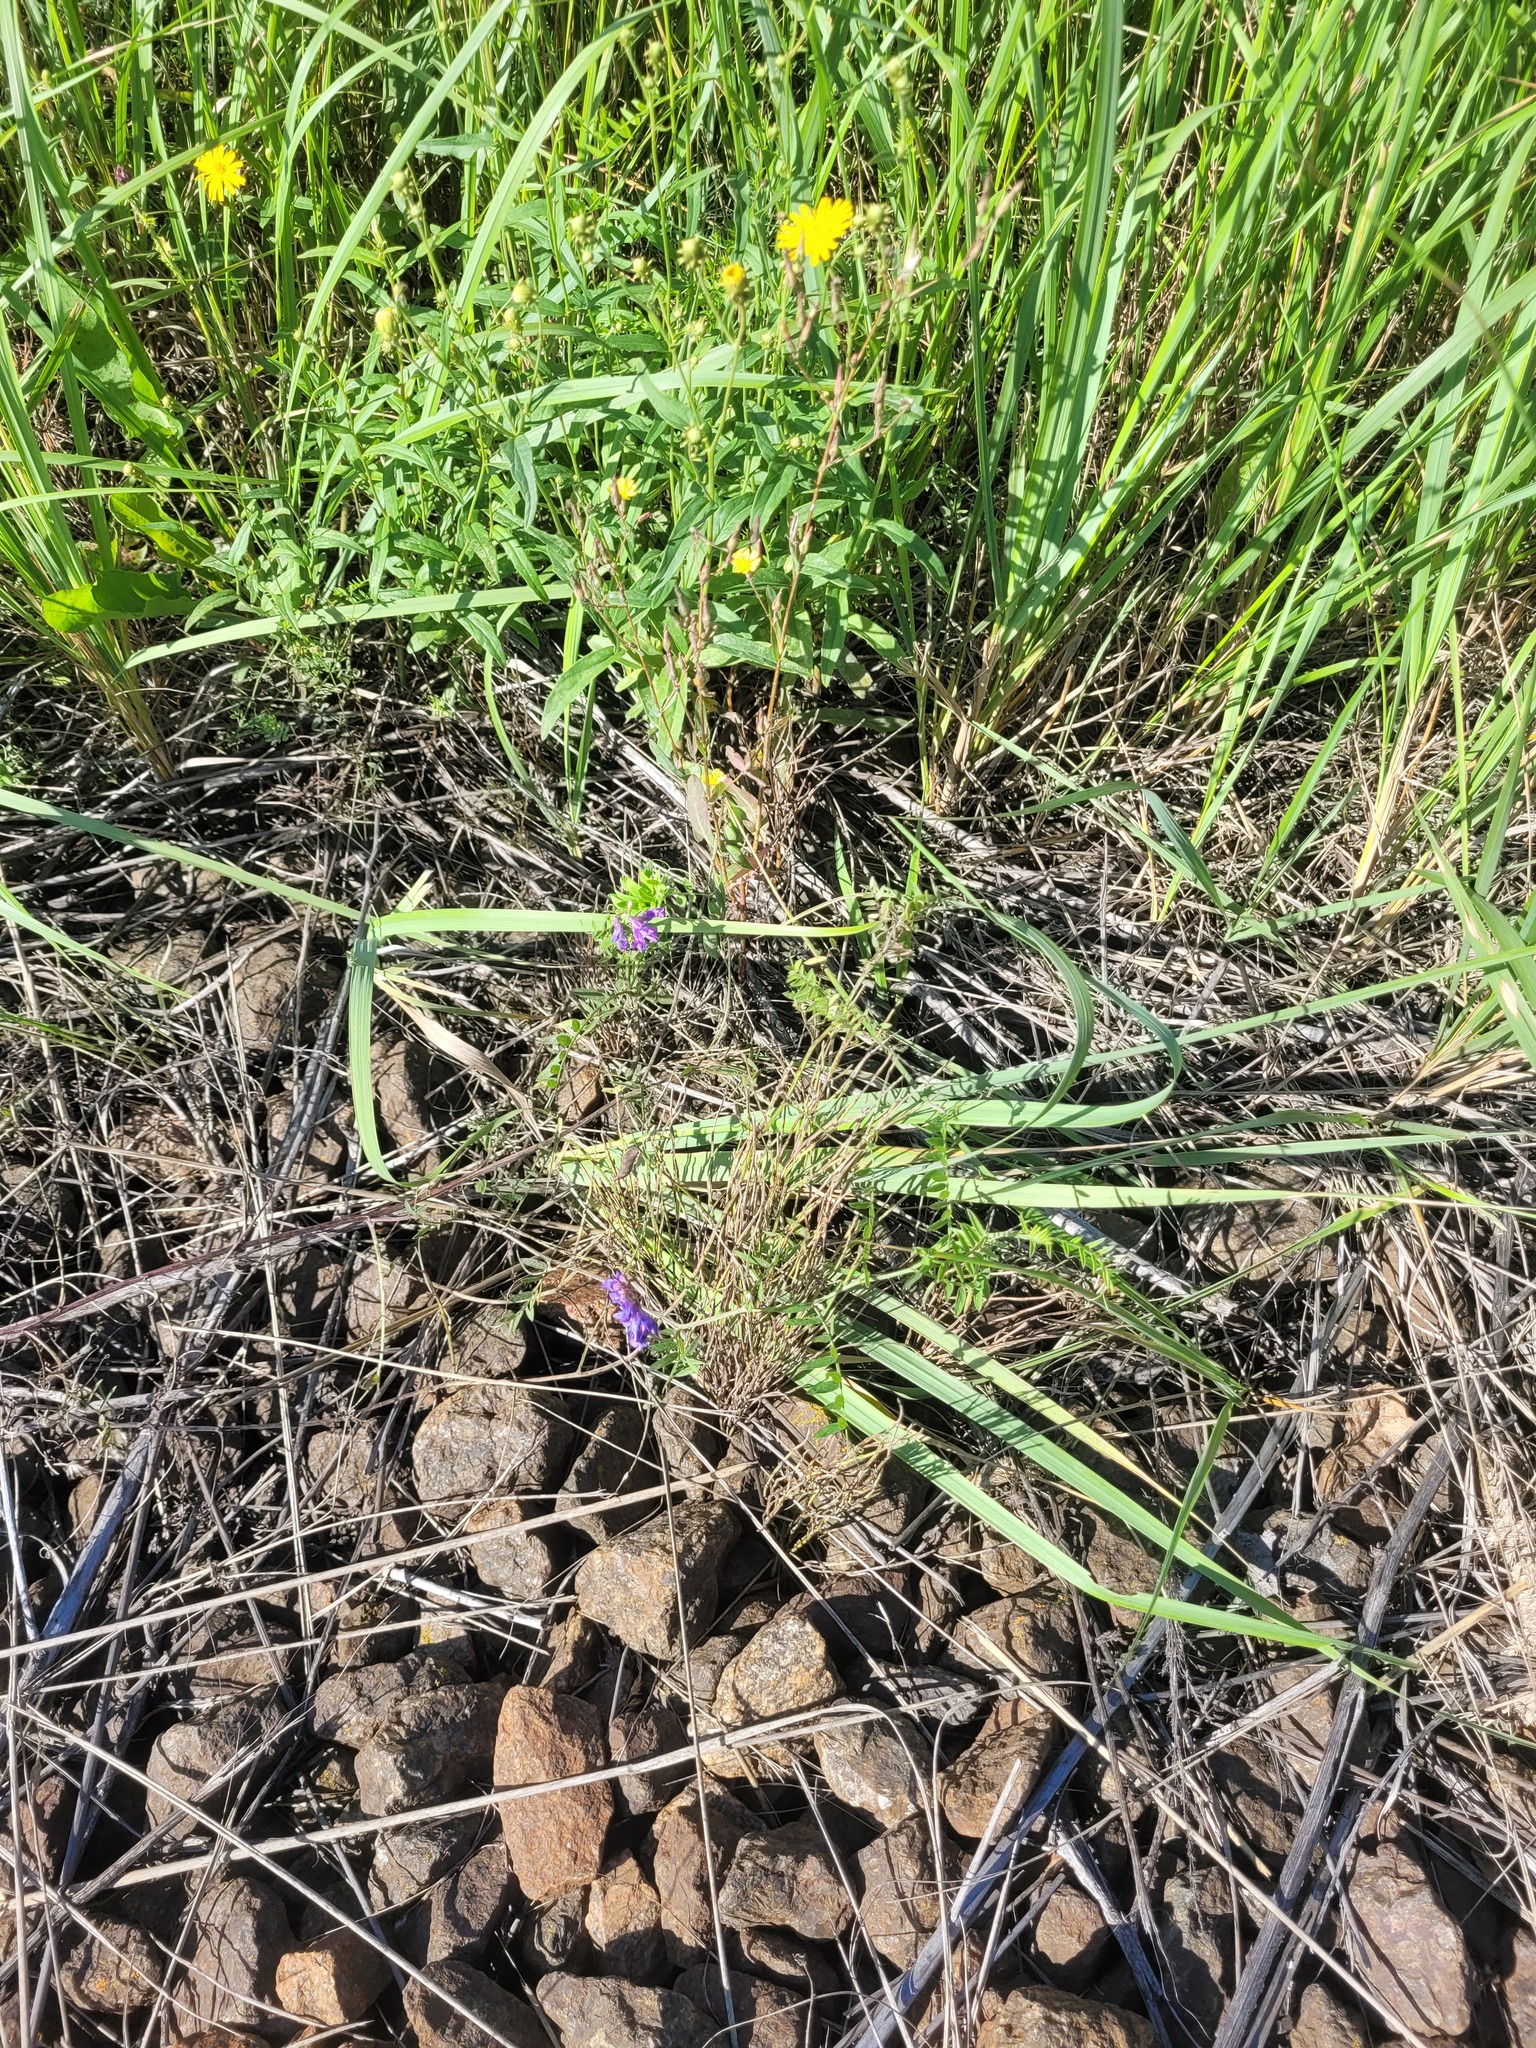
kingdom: Plantae
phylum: Tracheophyta
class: Magnoliopsida
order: Fabales
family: Fabaceae
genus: Vicia
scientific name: Vicia cracca
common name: Bird vetch
